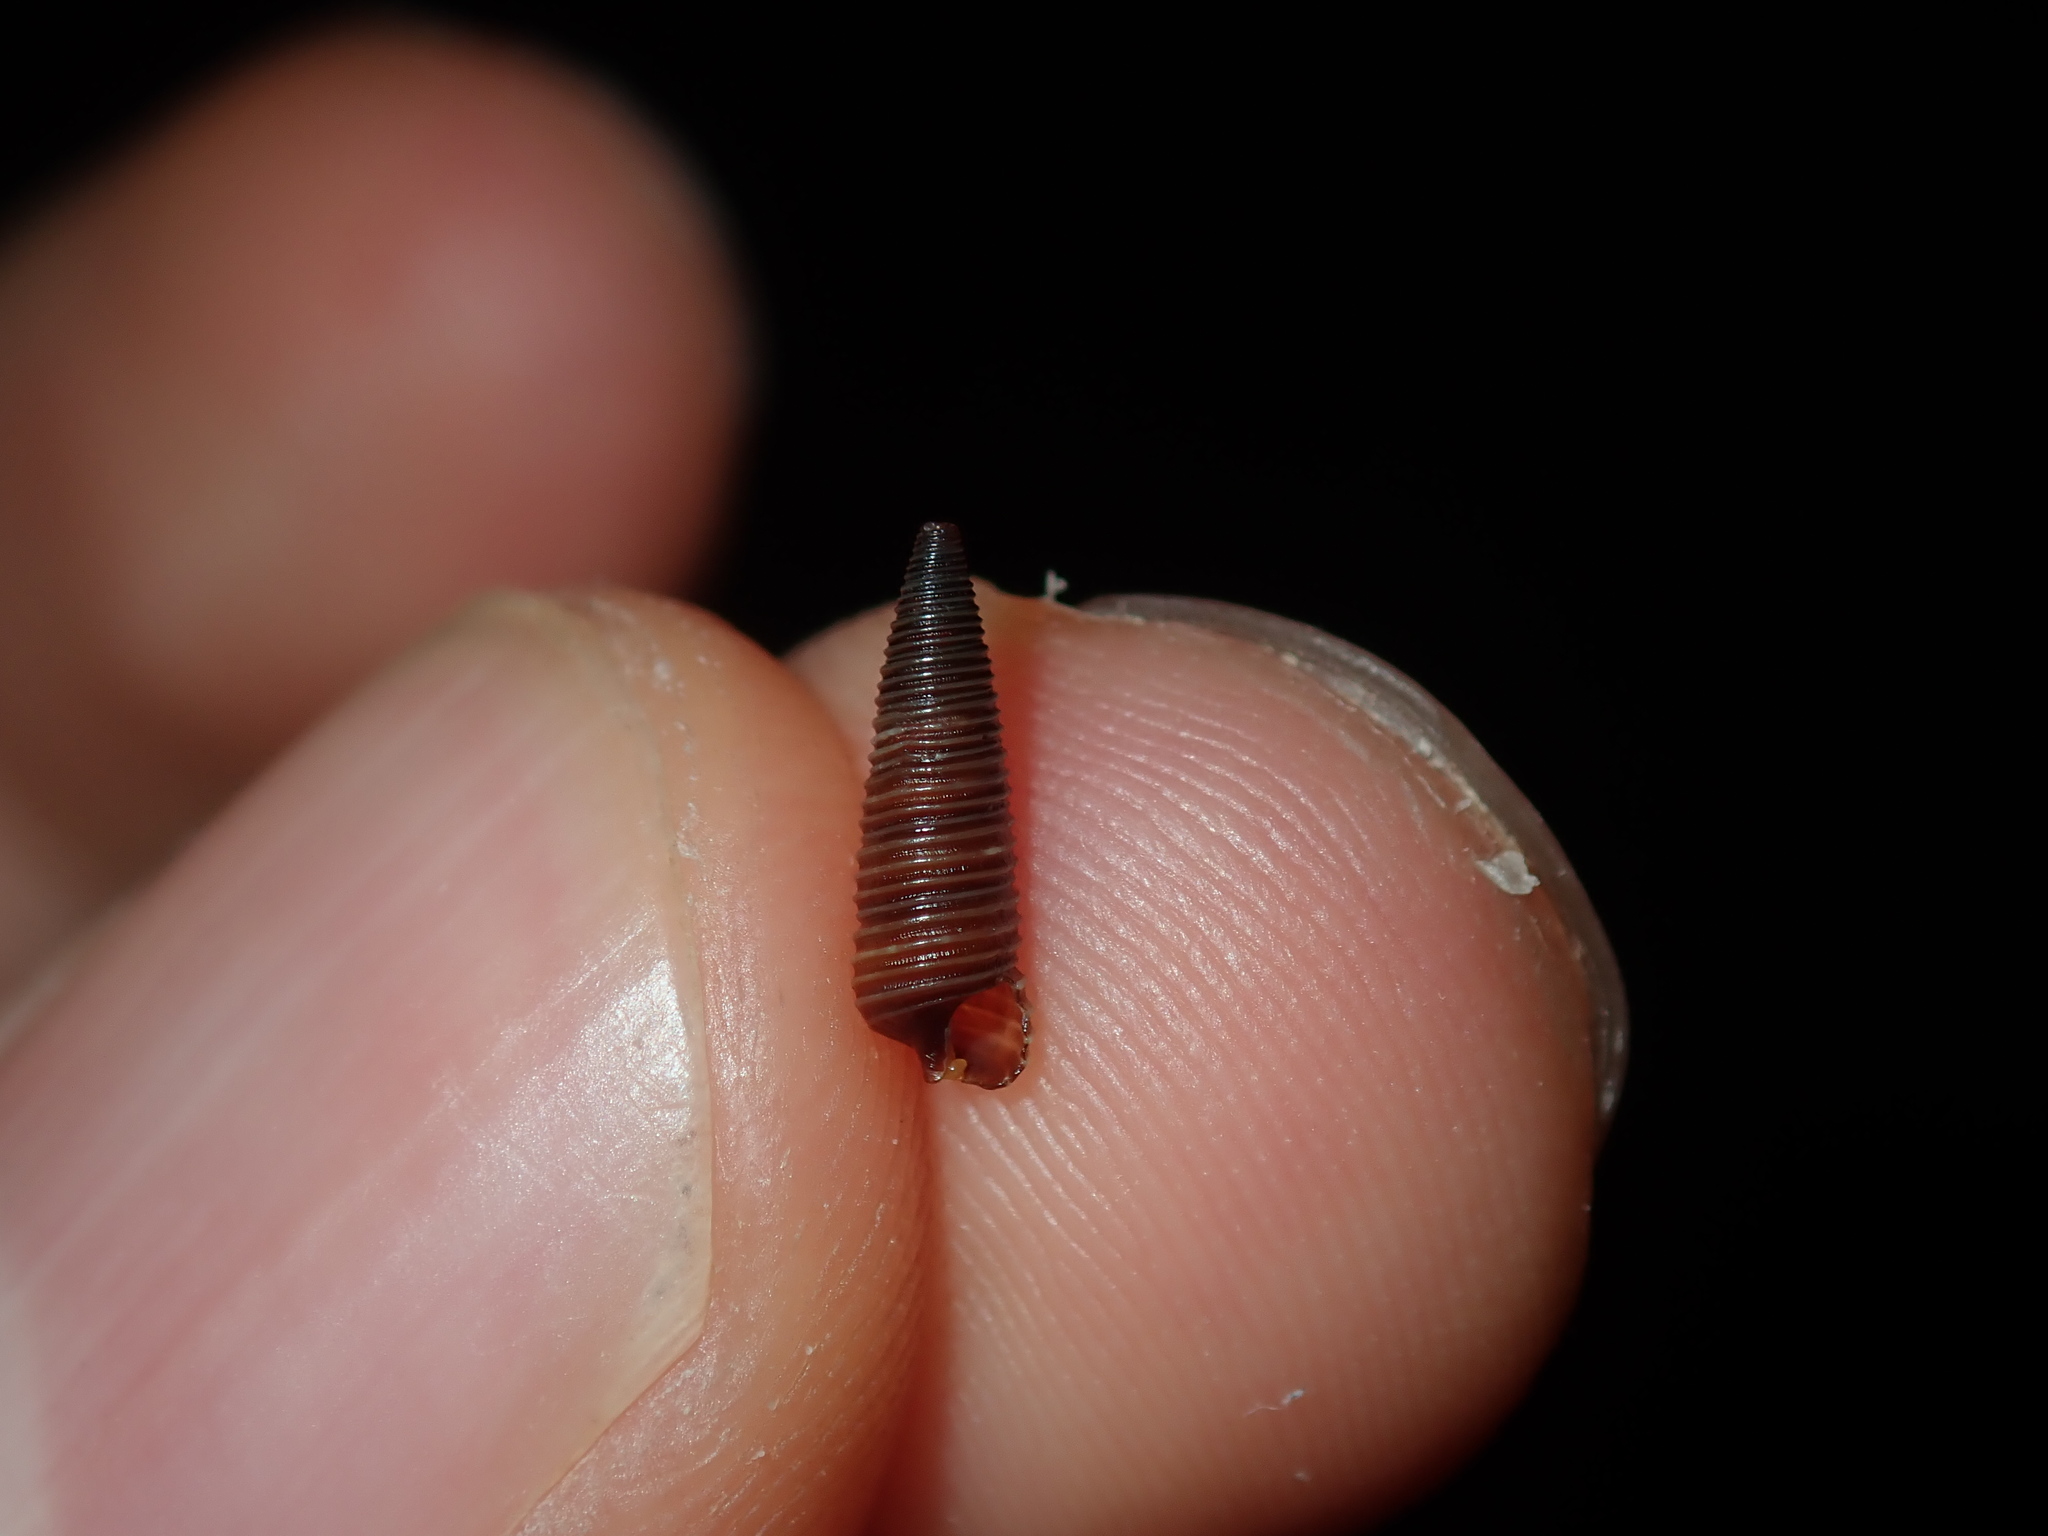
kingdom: Animalia
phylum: Mollusca
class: Gastropoda
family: Cerithiopsidae
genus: Seila
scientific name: Seila atkinsoni
